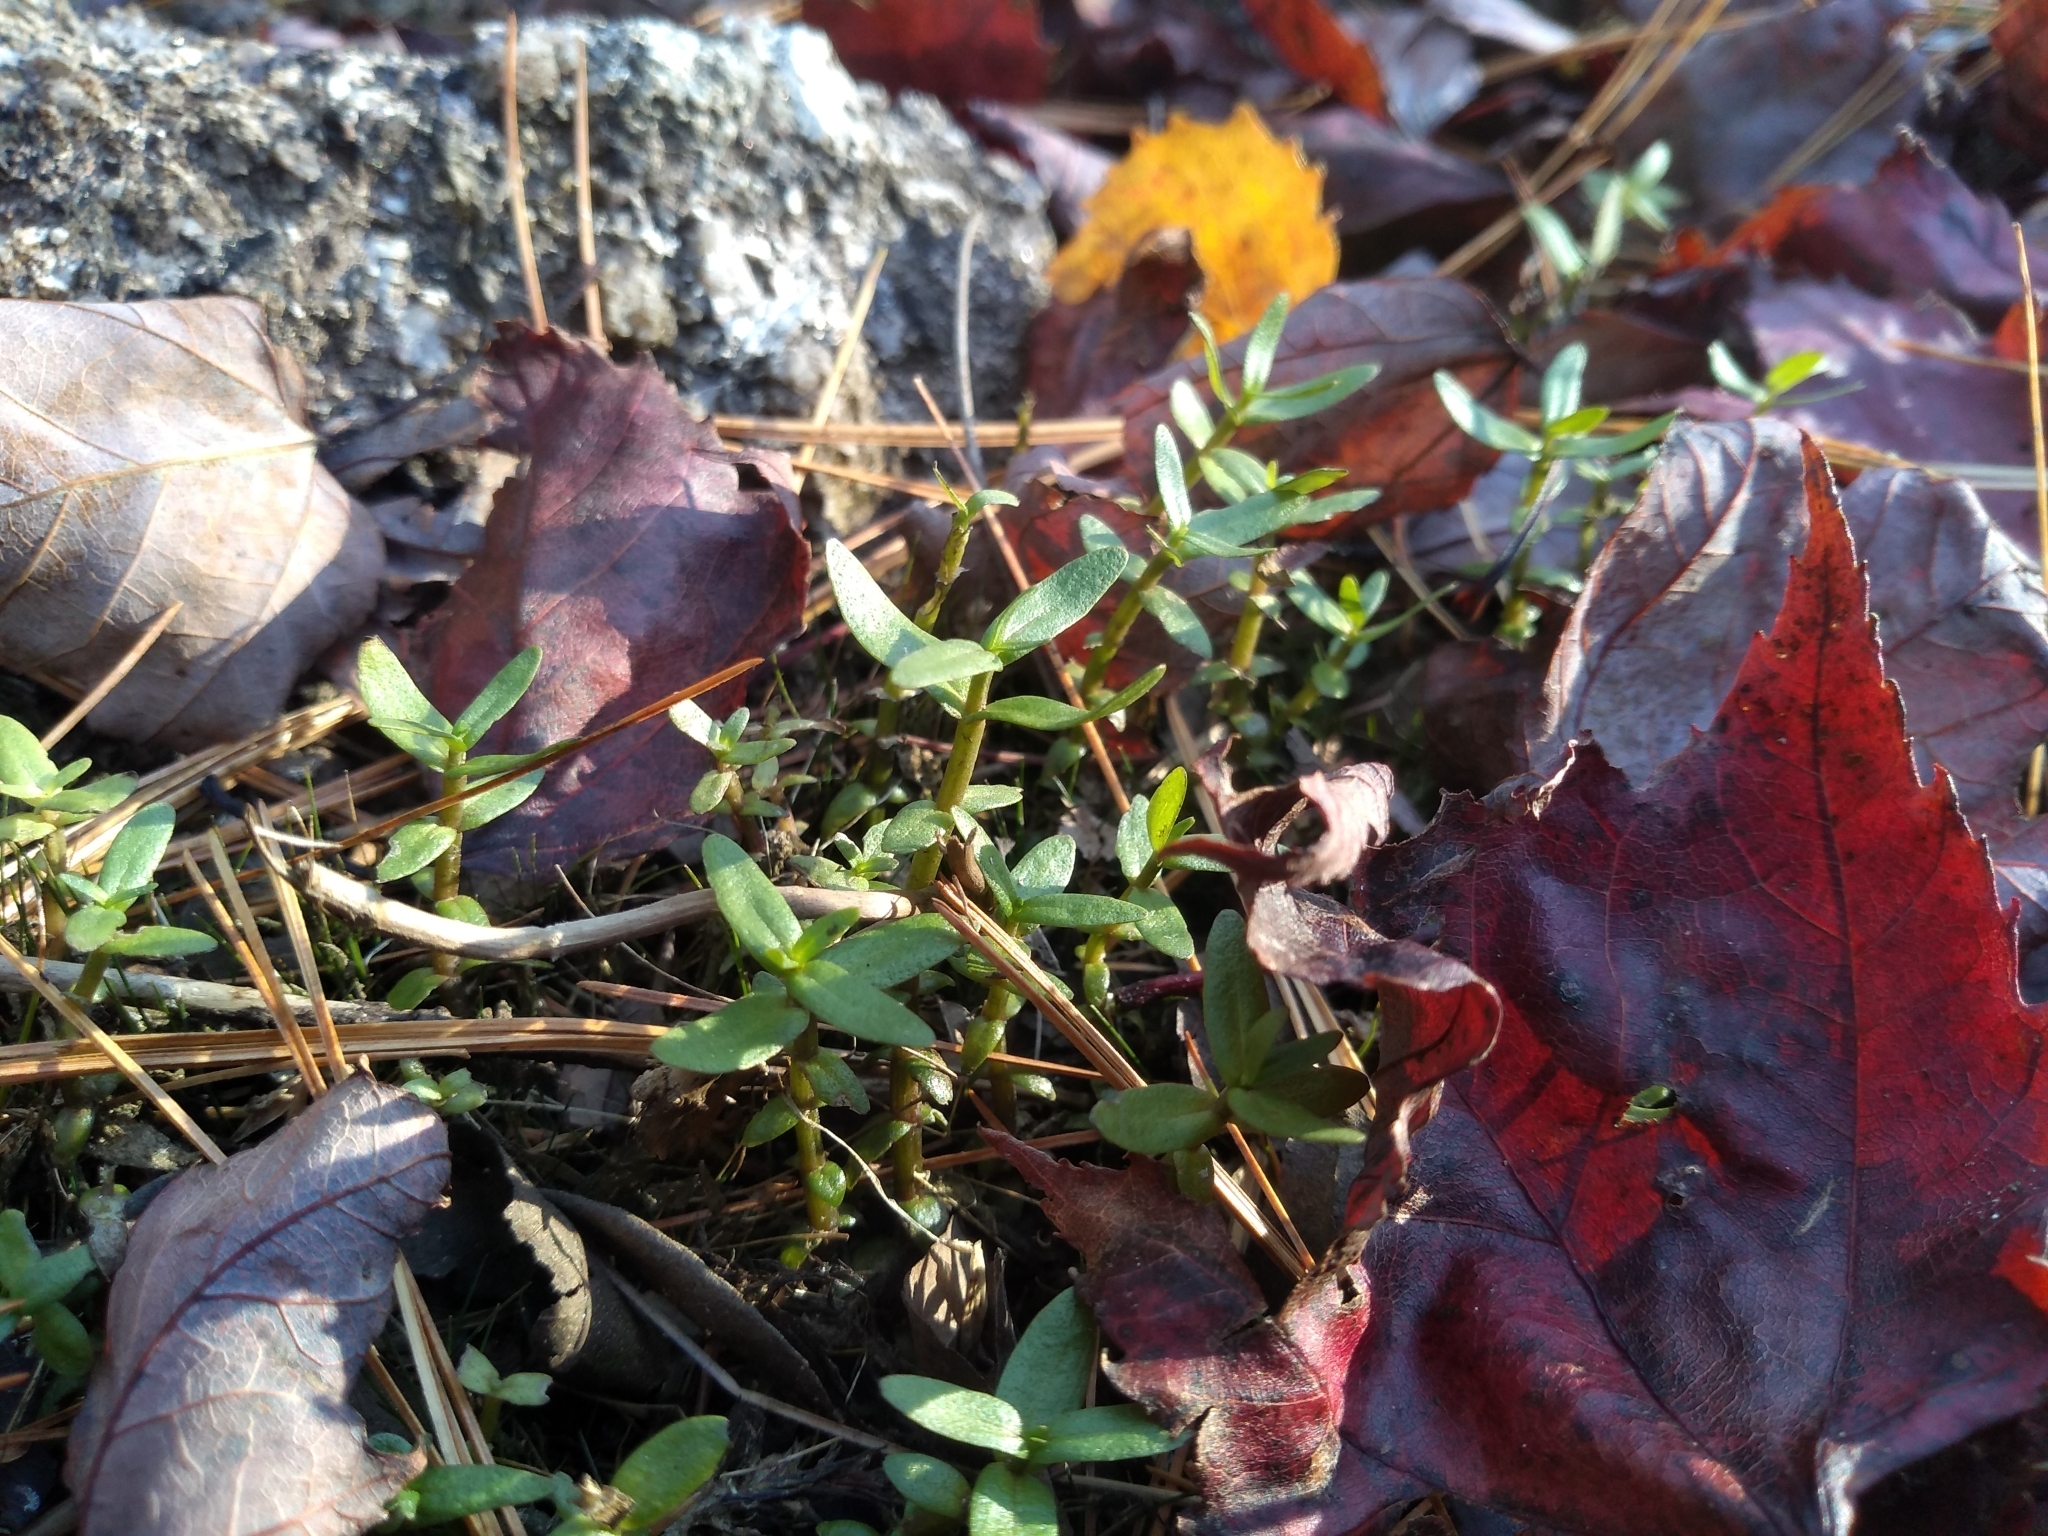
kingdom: Plantae
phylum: Tracheophyta
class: Magnoliopsida
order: Lamiales
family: Plantaginaceae
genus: Gratiola
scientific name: Gratiola lutea
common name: Golden hedge-hyssop
